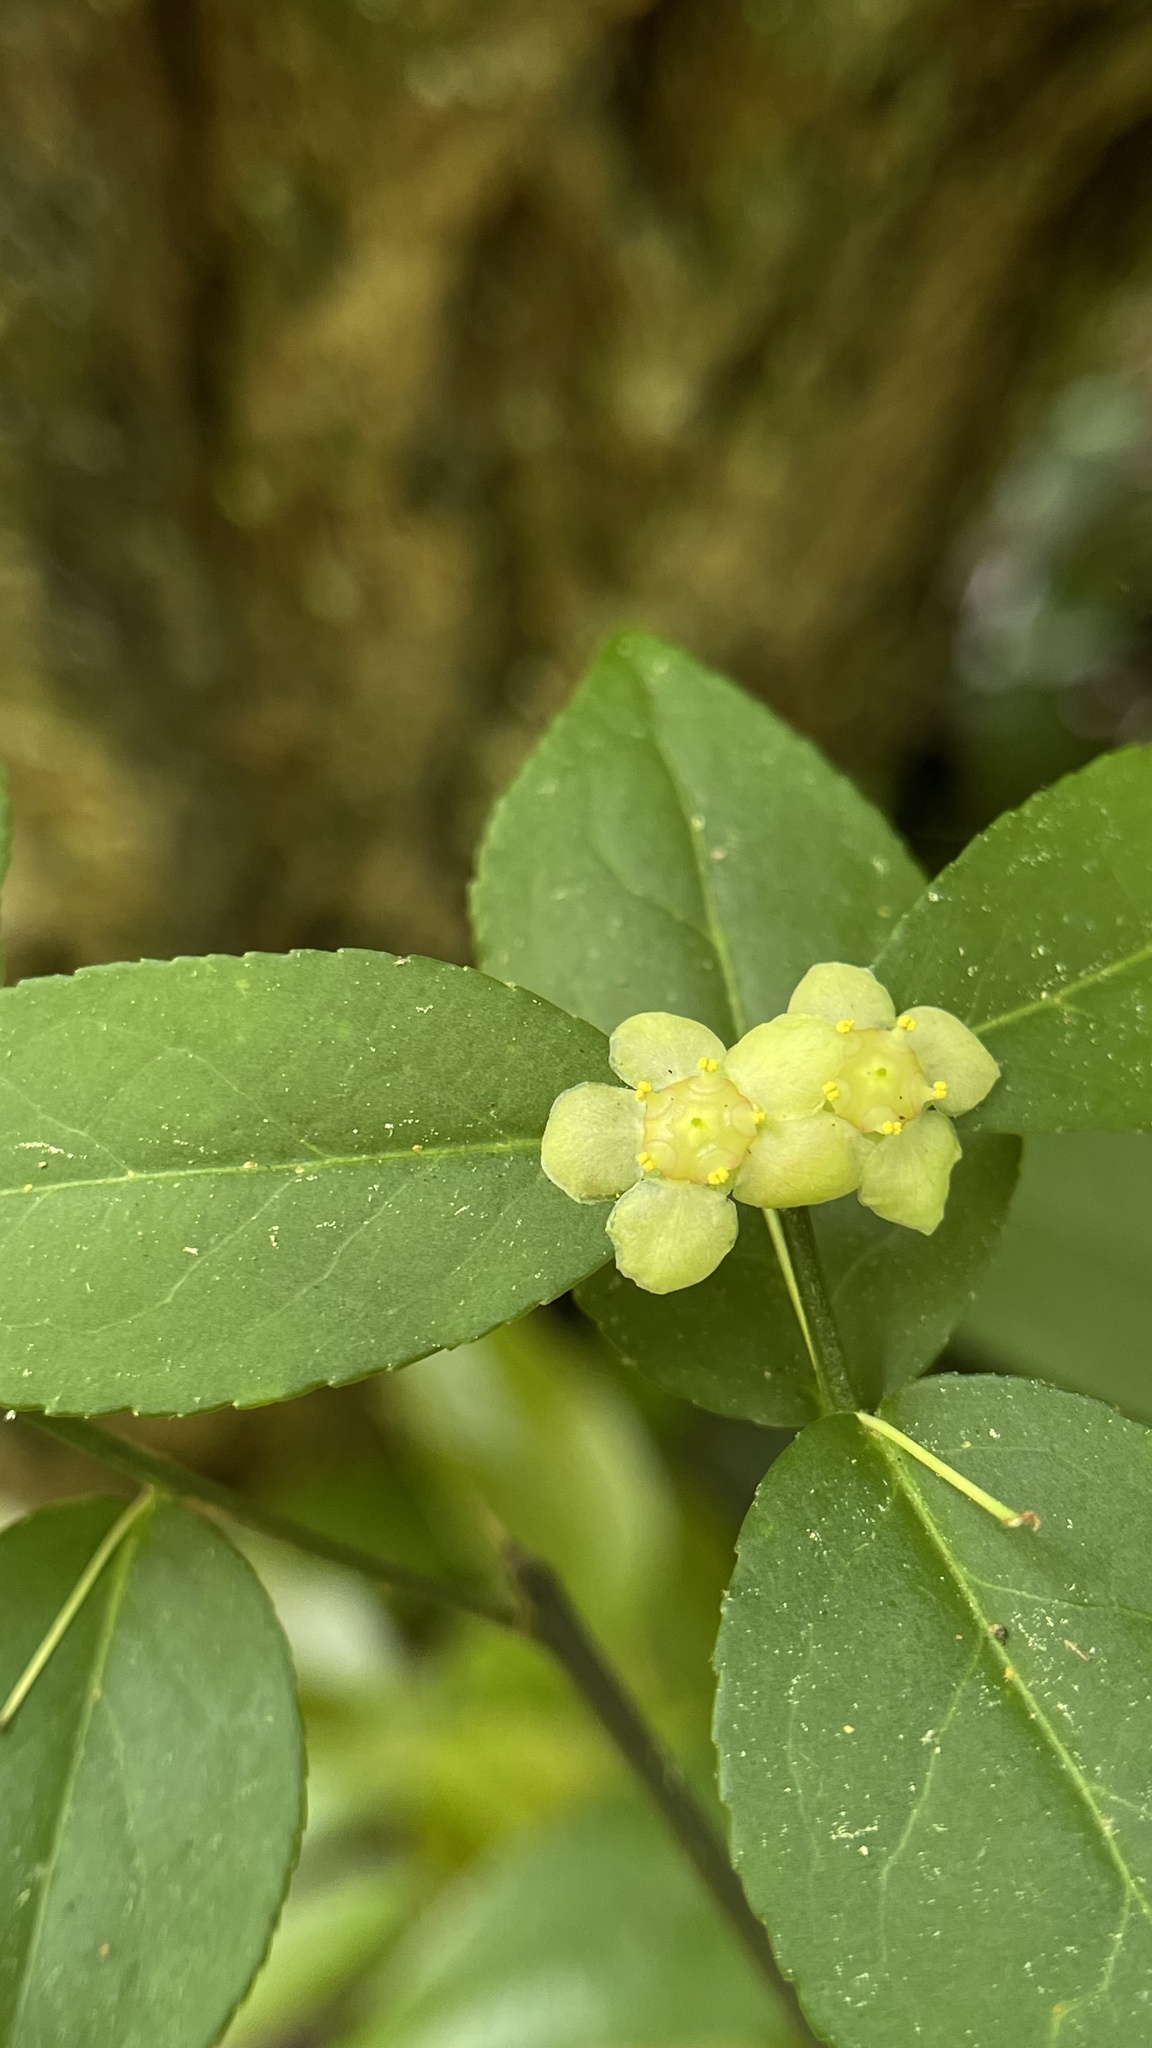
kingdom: Plantae
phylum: Tracheophyta
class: Magnoliopsida
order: Celastrales
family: Celastraceae
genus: Euonymus
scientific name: Euonymus americanus
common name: Bursting-heart
